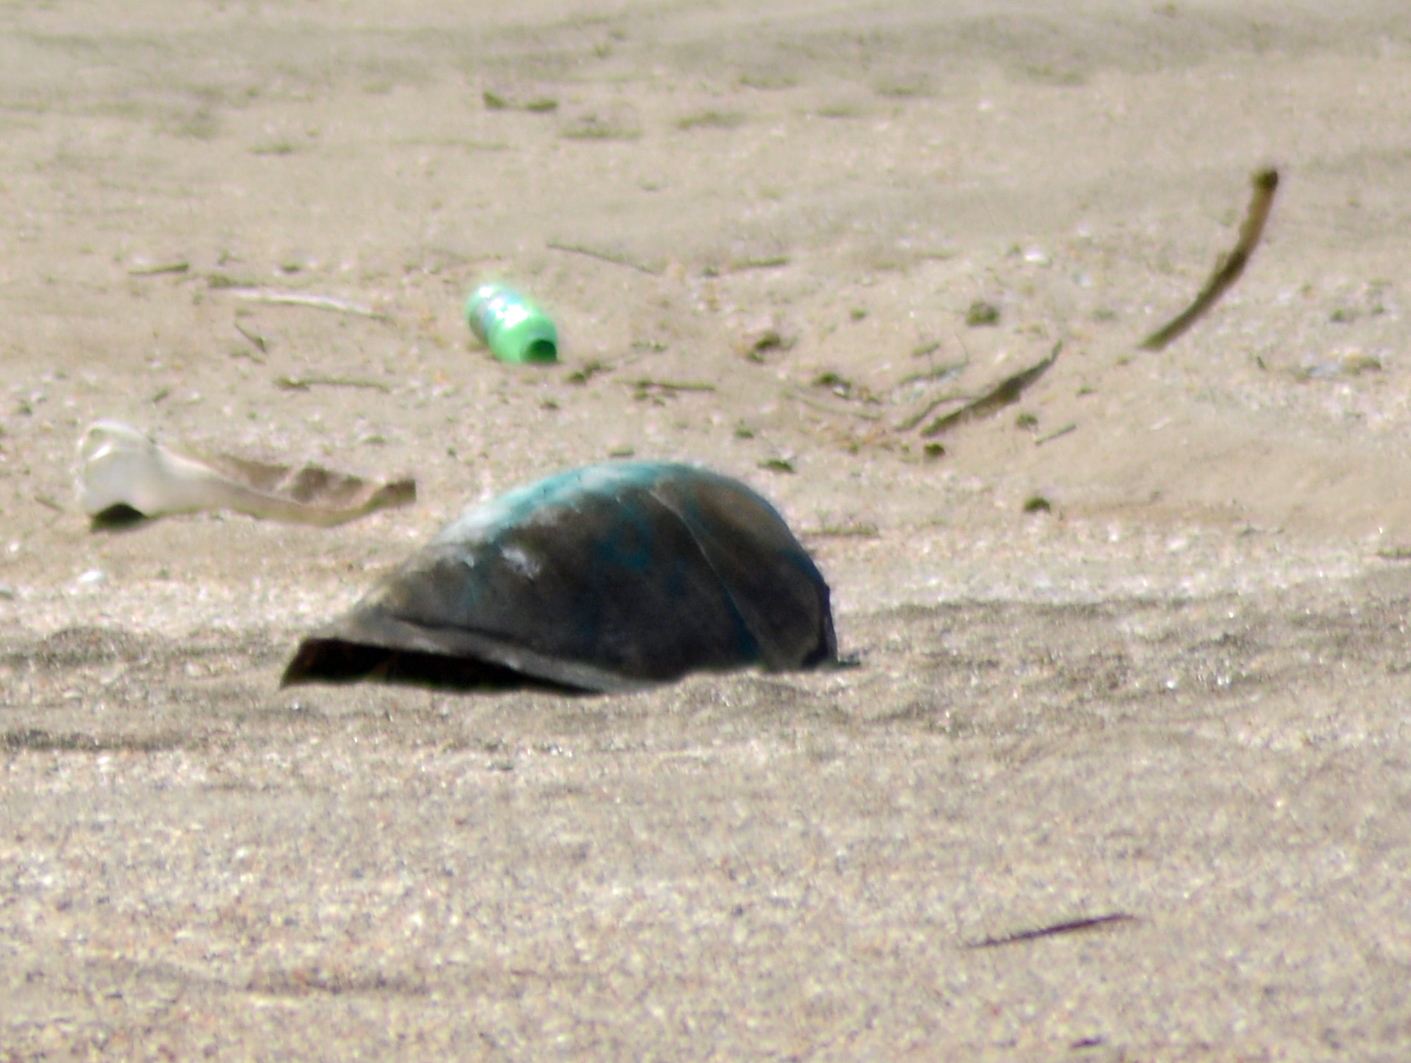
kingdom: Animalia
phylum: Chordata
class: Testudines
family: Cheloniidae
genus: Chelonia
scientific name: Chelonia mydas
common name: Green turtle
